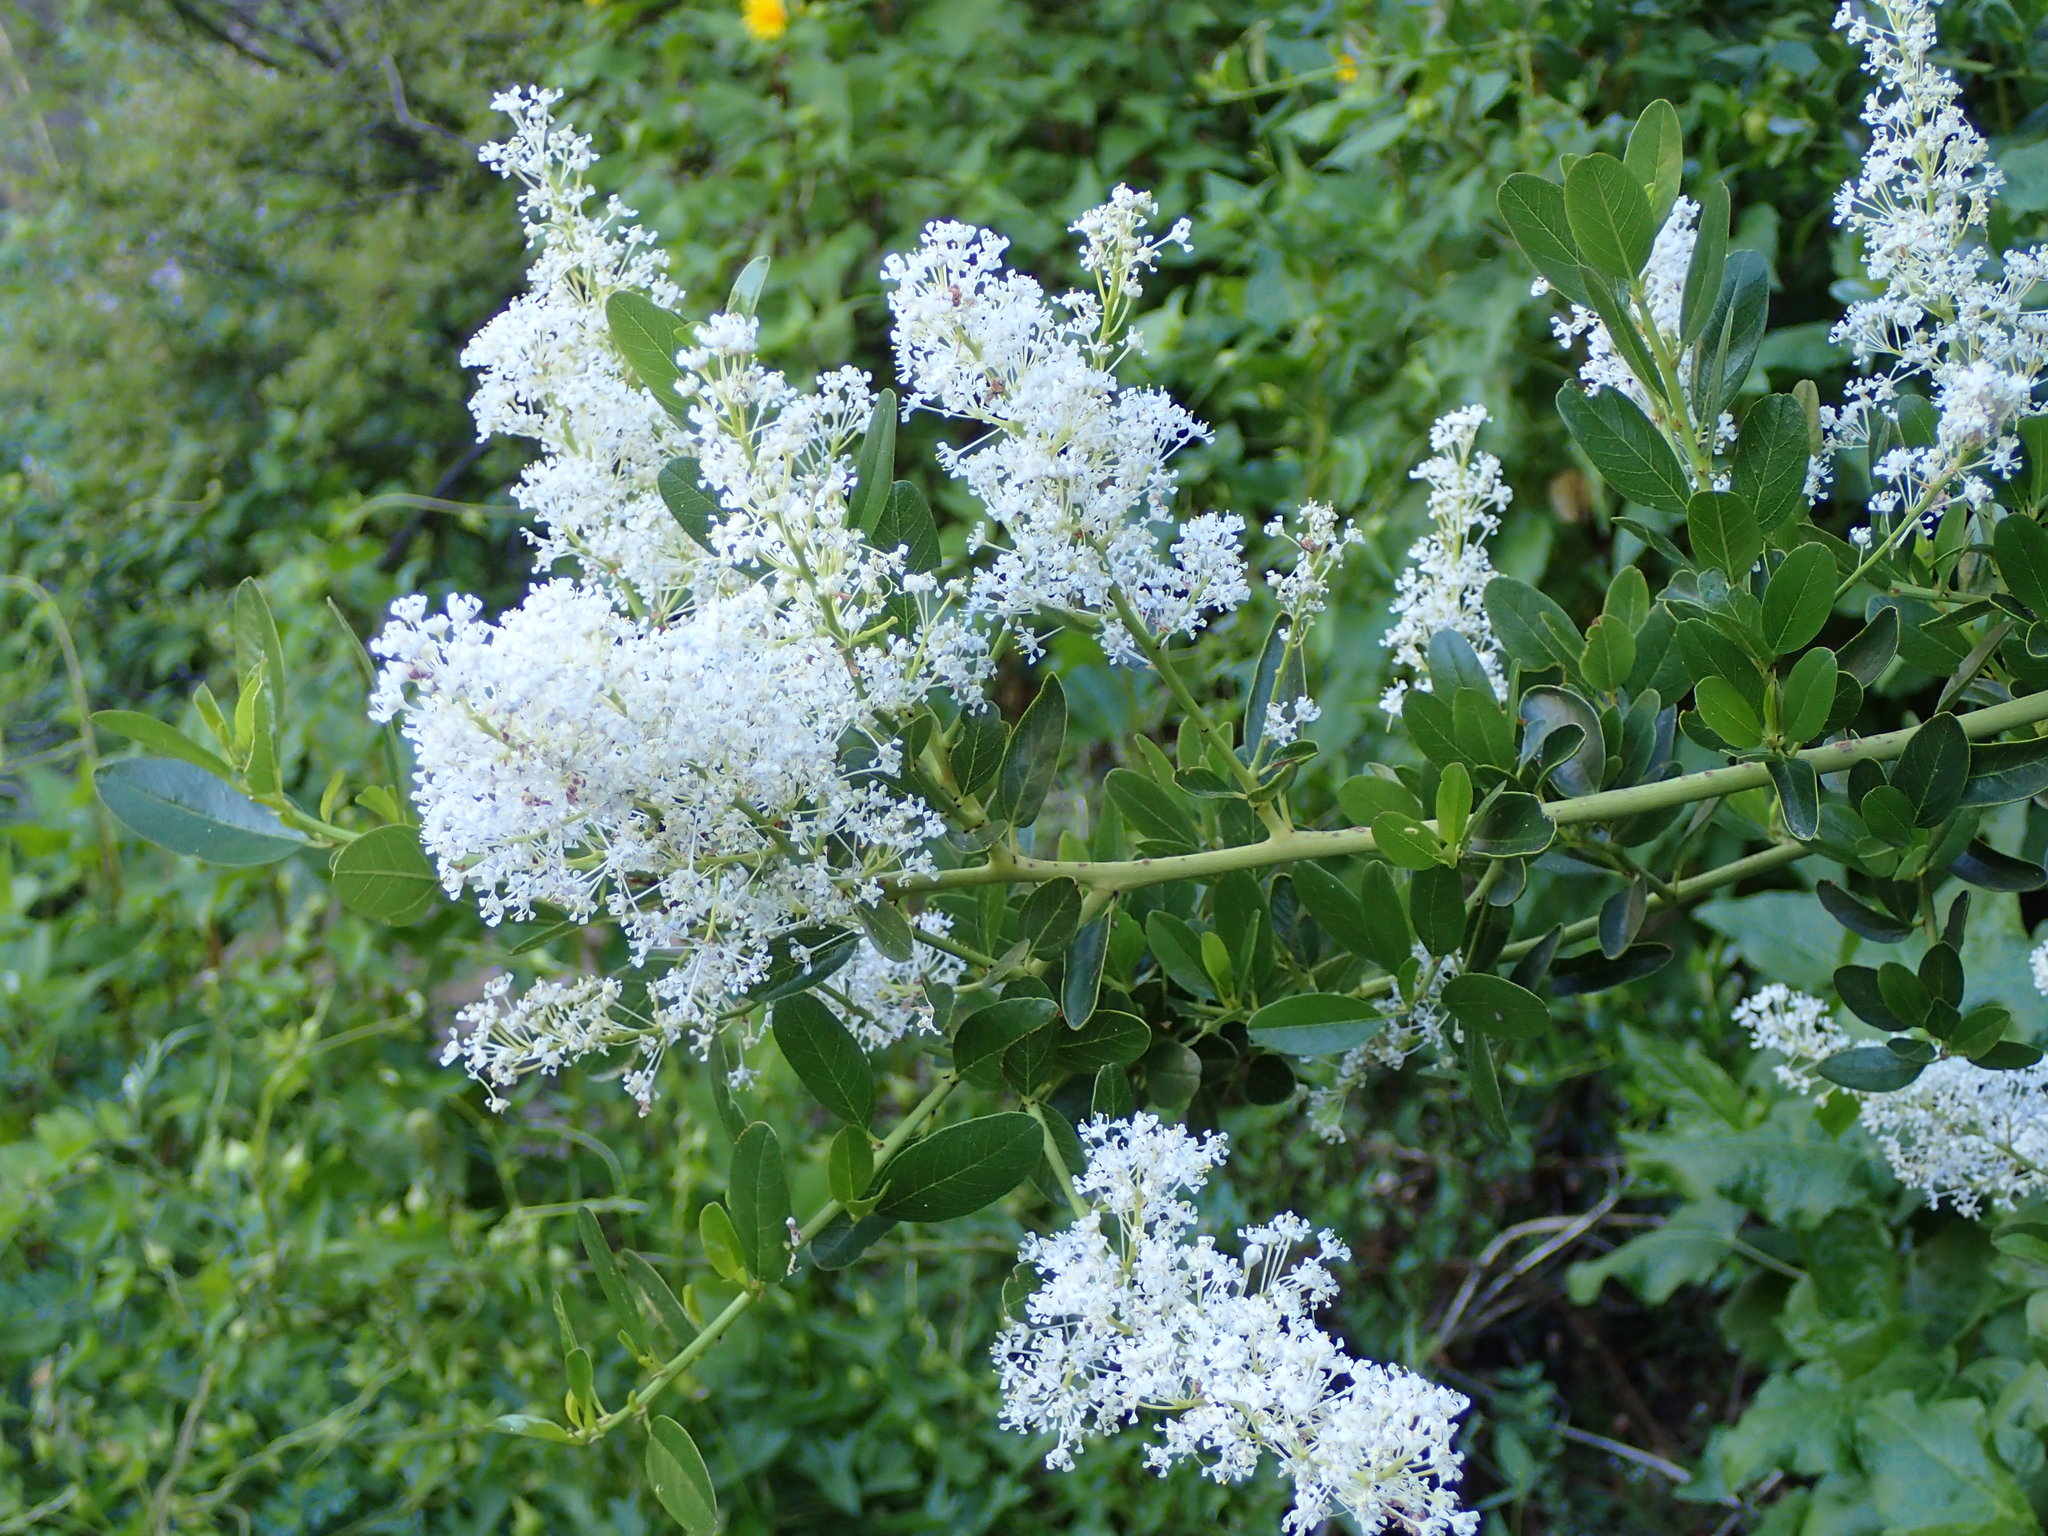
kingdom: Plantae
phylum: Tracheophyta
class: Magnoliopsida
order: Rosales
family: Rhamnaceae
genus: Ceanothus
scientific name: Ceanothus spinosus
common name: Greenbark whitethorn
